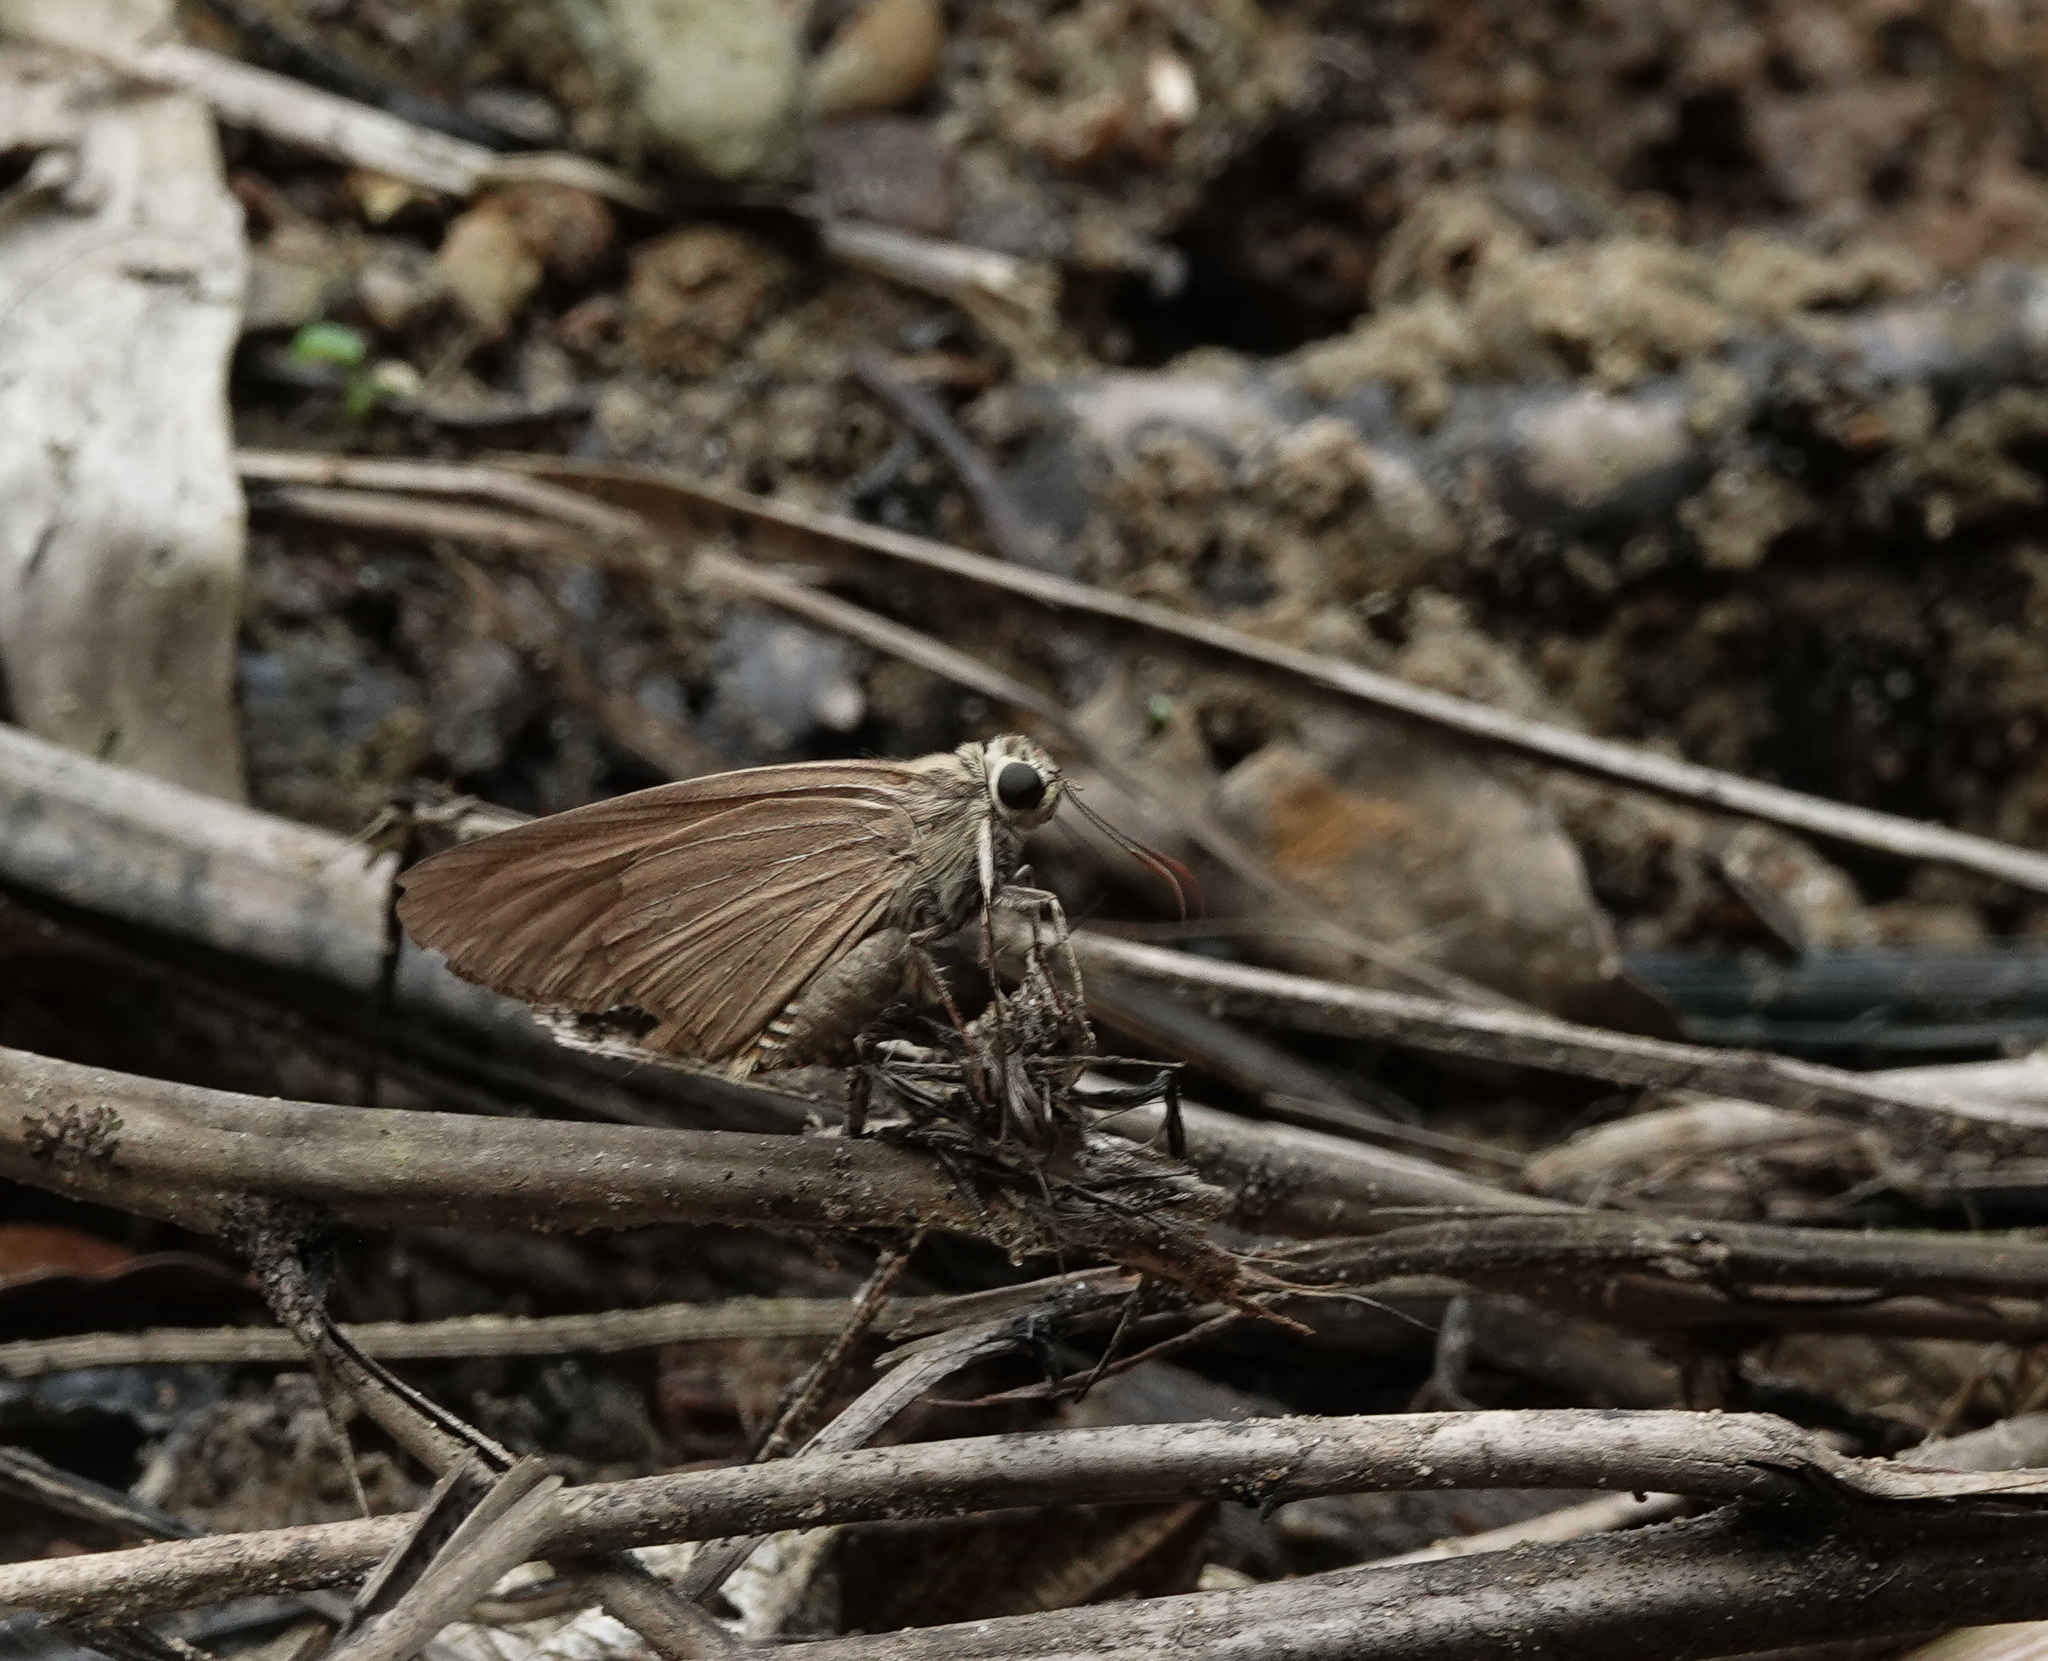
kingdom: Animalia
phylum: Arthropoda
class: Insecta
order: Lepidoptera
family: Hesperiidae
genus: Badamia
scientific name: Badamia exclamationis
